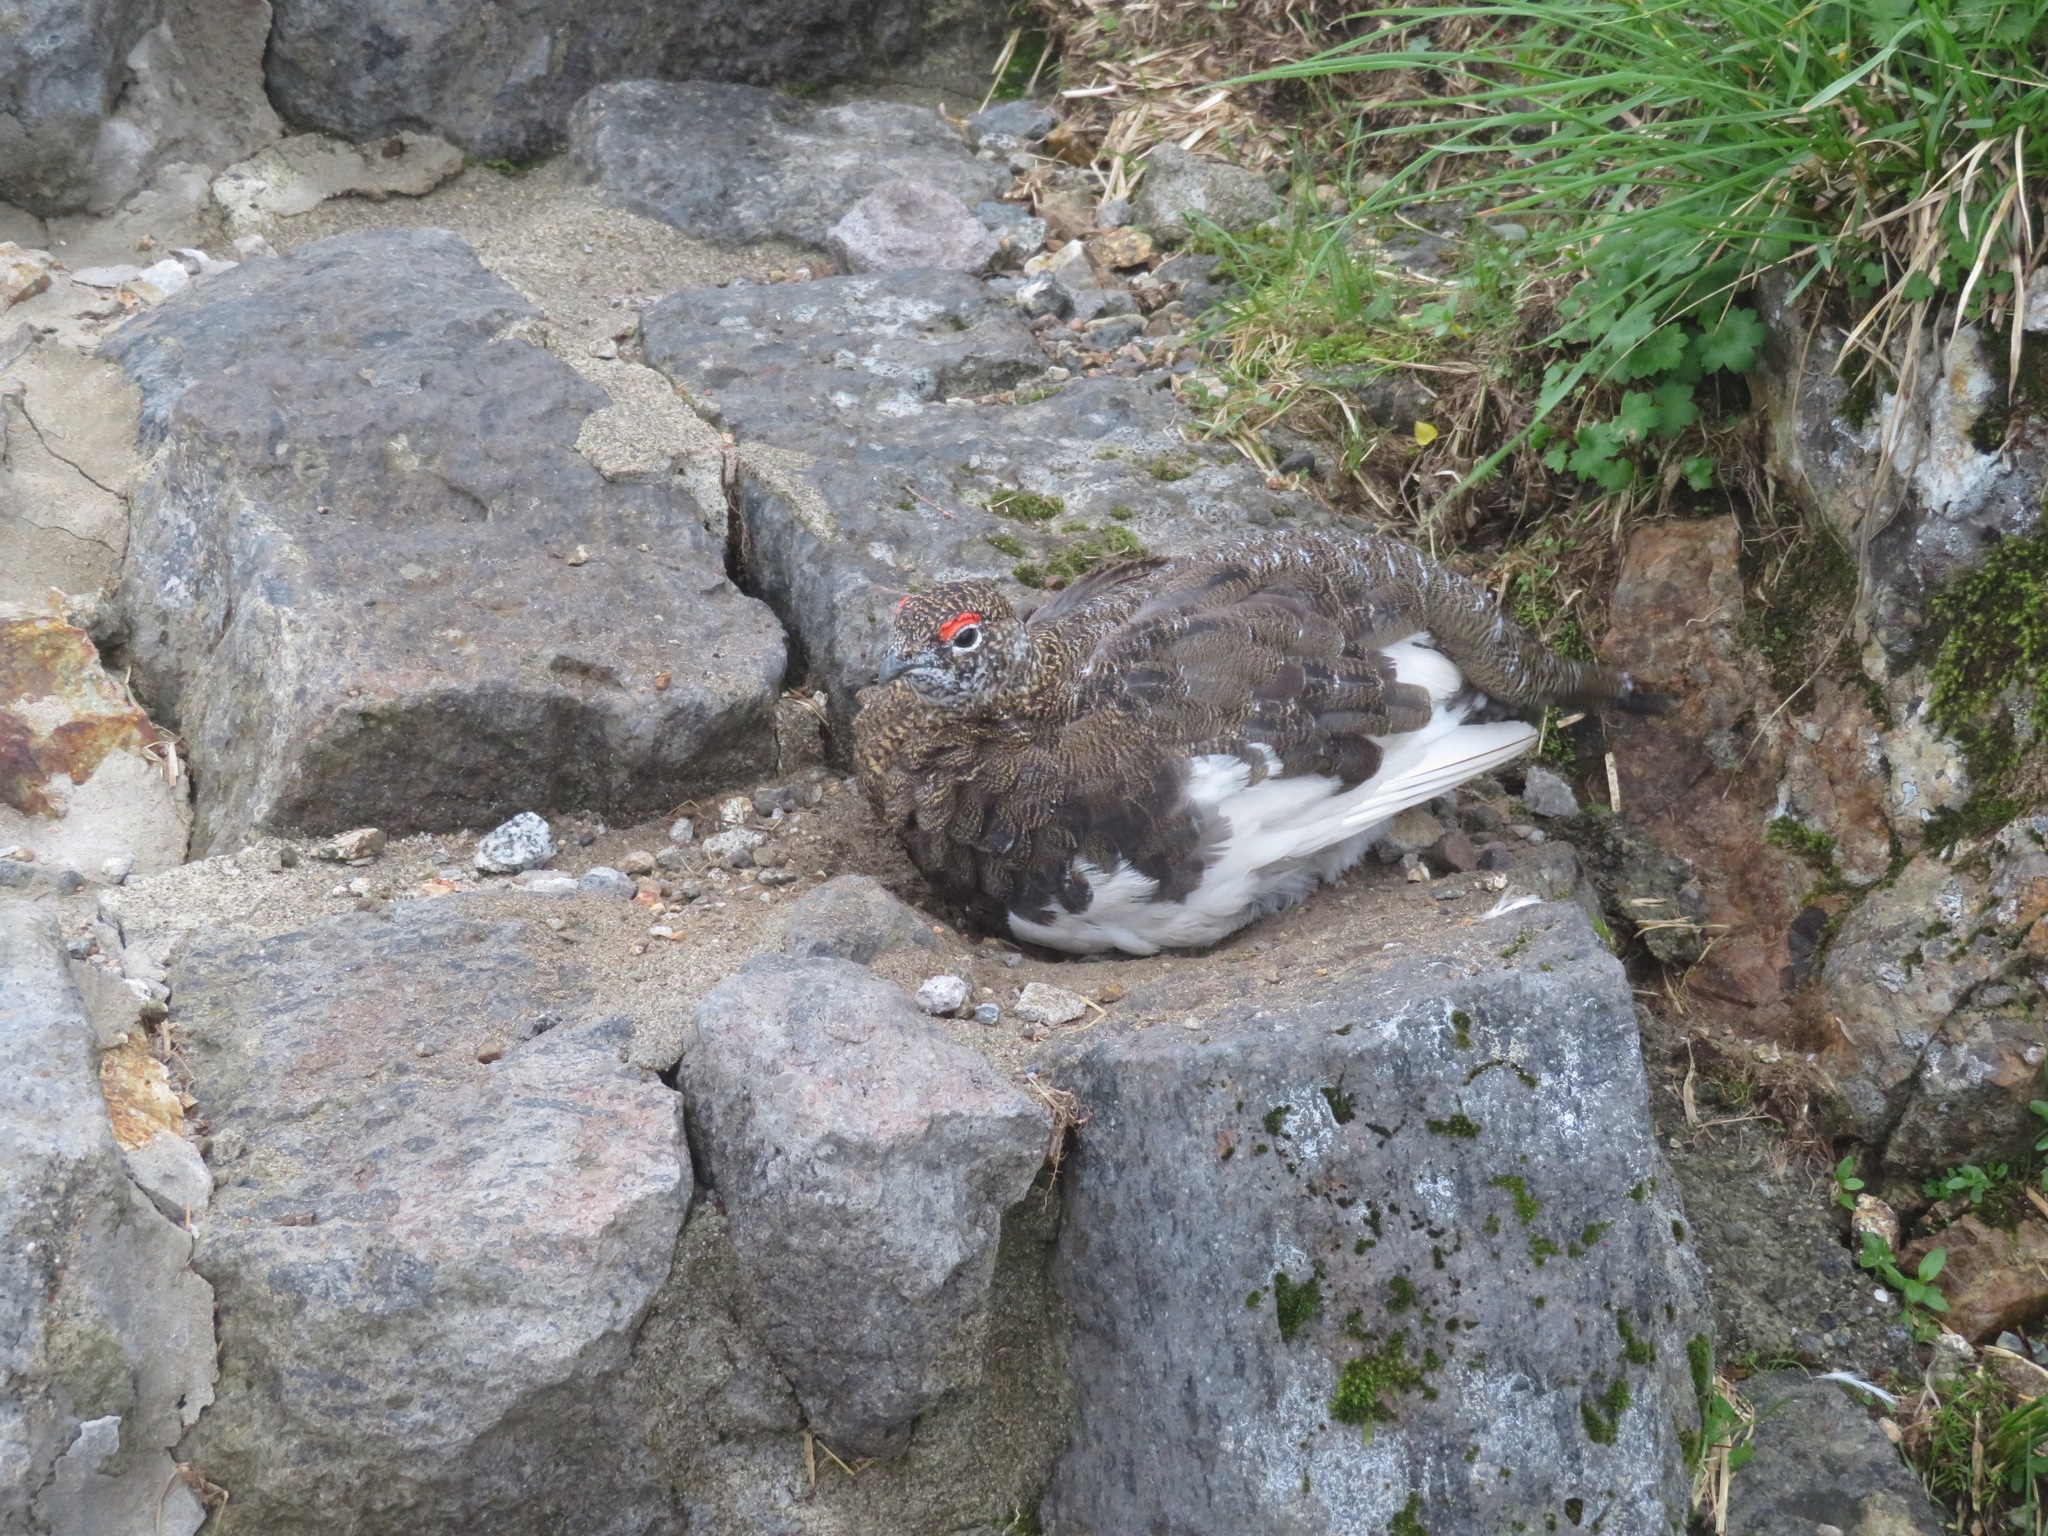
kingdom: Animalia
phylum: Chordata
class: Aves
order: Galliformes
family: Phasianidae
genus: Lagopus
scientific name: Lagopus muta
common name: Rock ptarmigan
